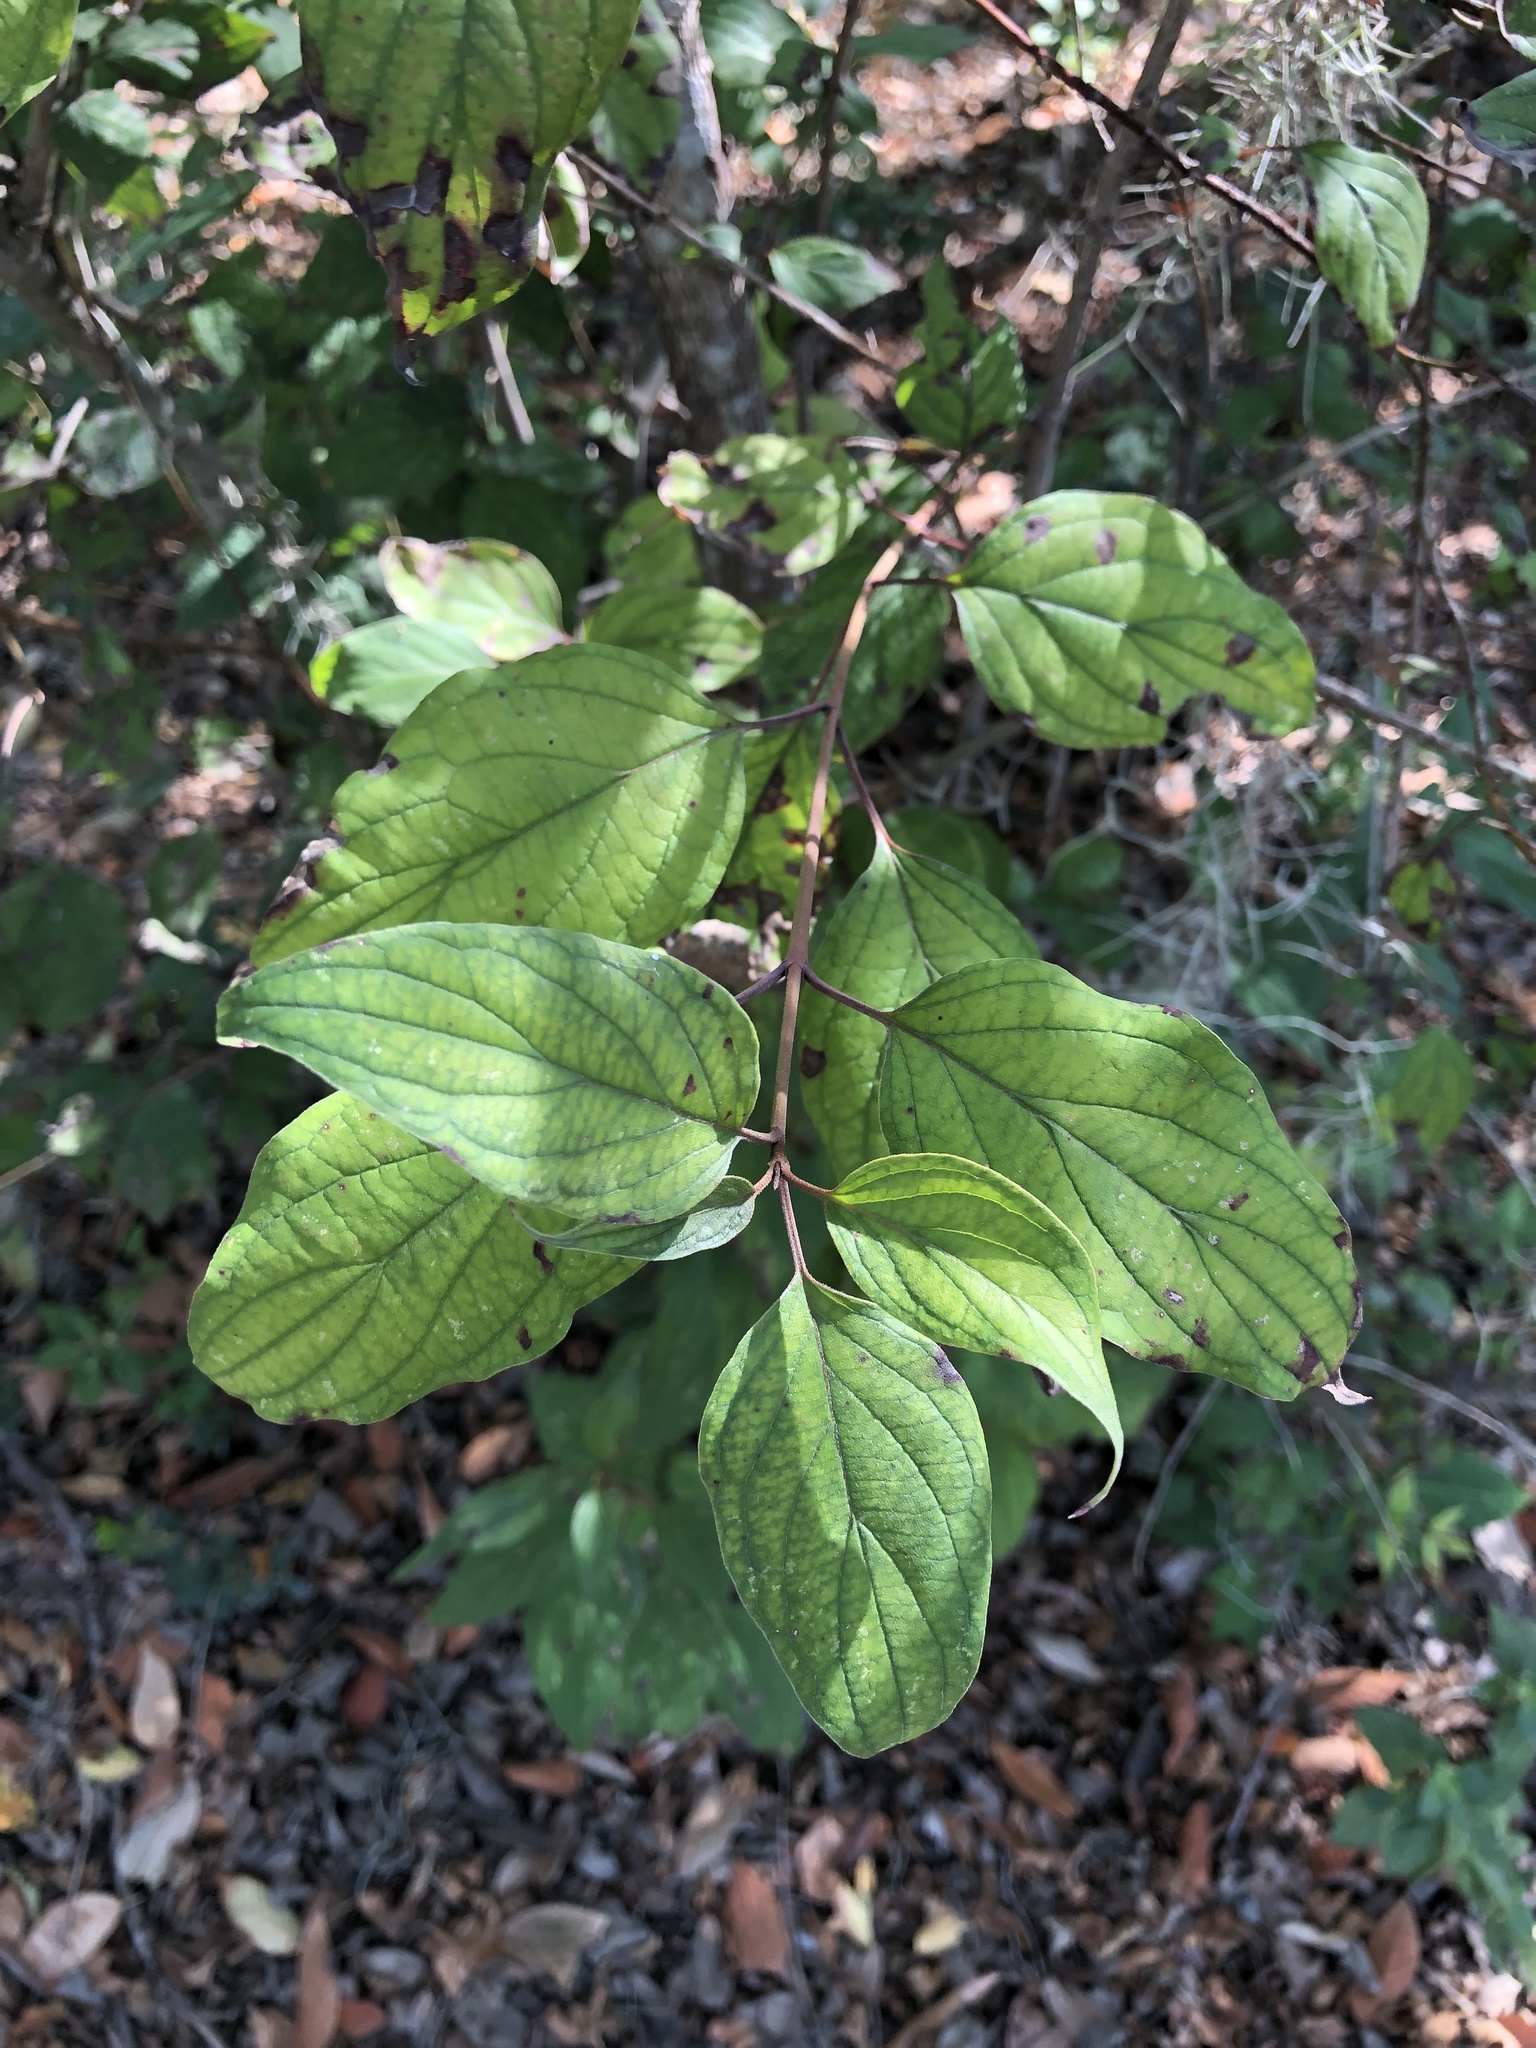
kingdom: Plantae
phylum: Tracheophyta
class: Magnoliopsida
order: Cornales
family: Cornaceae
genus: Cornus
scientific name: Cornus drummondii
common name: Rough-leaf dogwood
